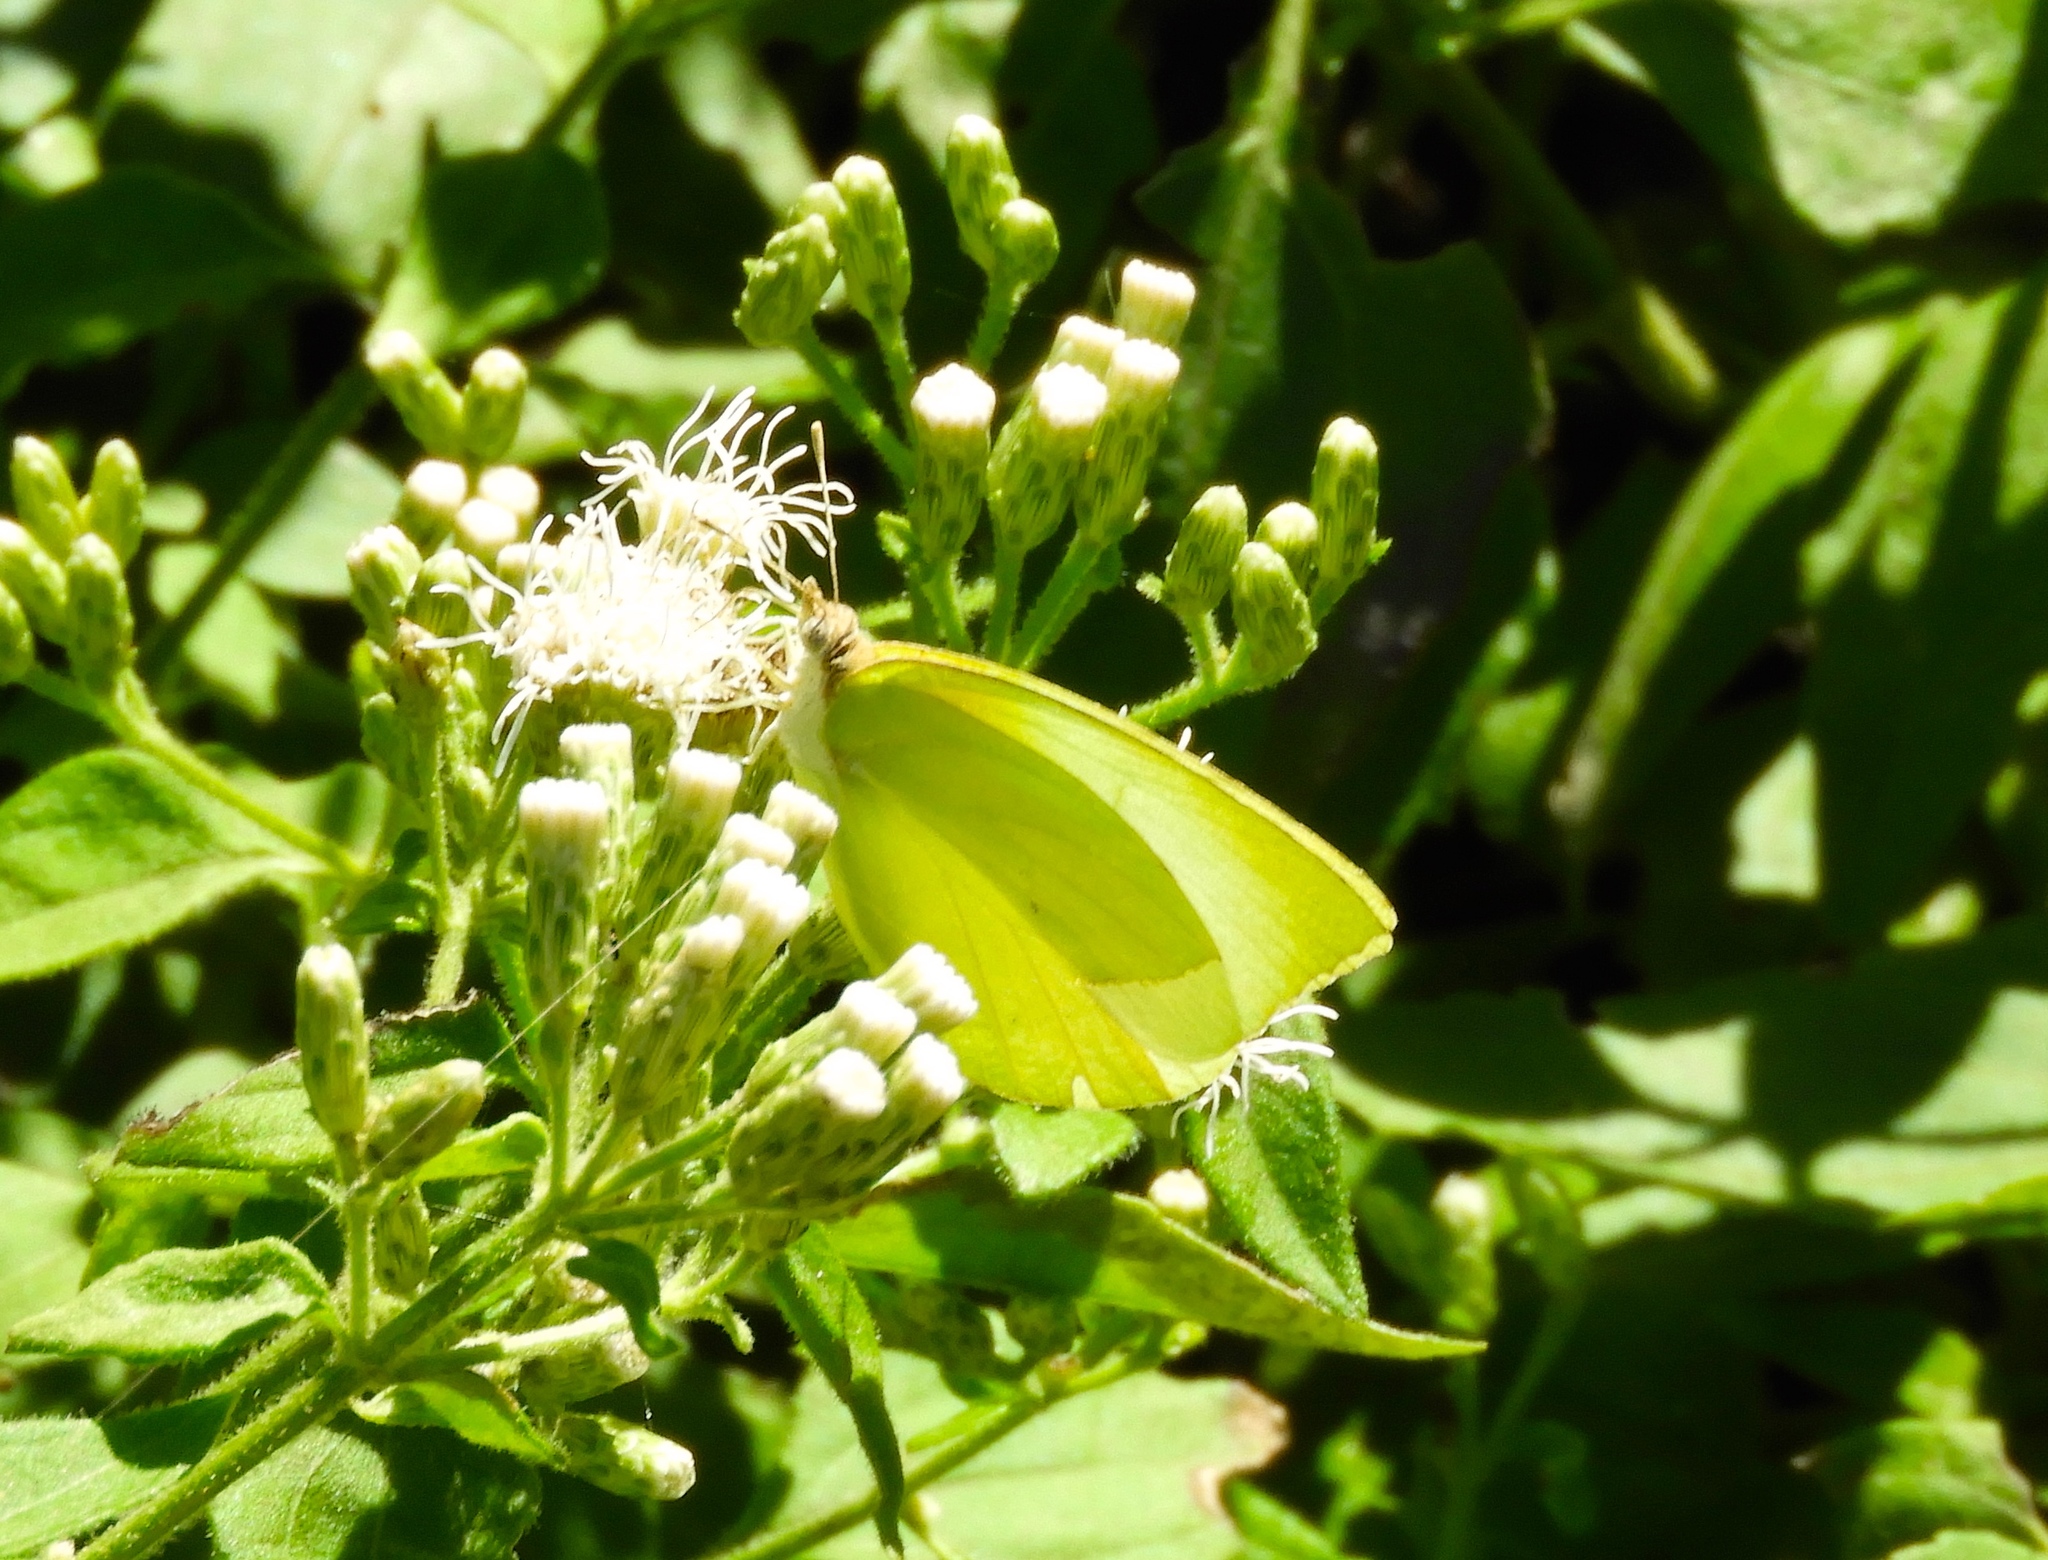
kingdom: Animalia
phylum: Arthropoda
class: Insecta
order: Lepidoptera
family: Pieridae
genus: Kricogonia
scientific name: Kricogonia lyside
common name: Guayacan sulphur,
